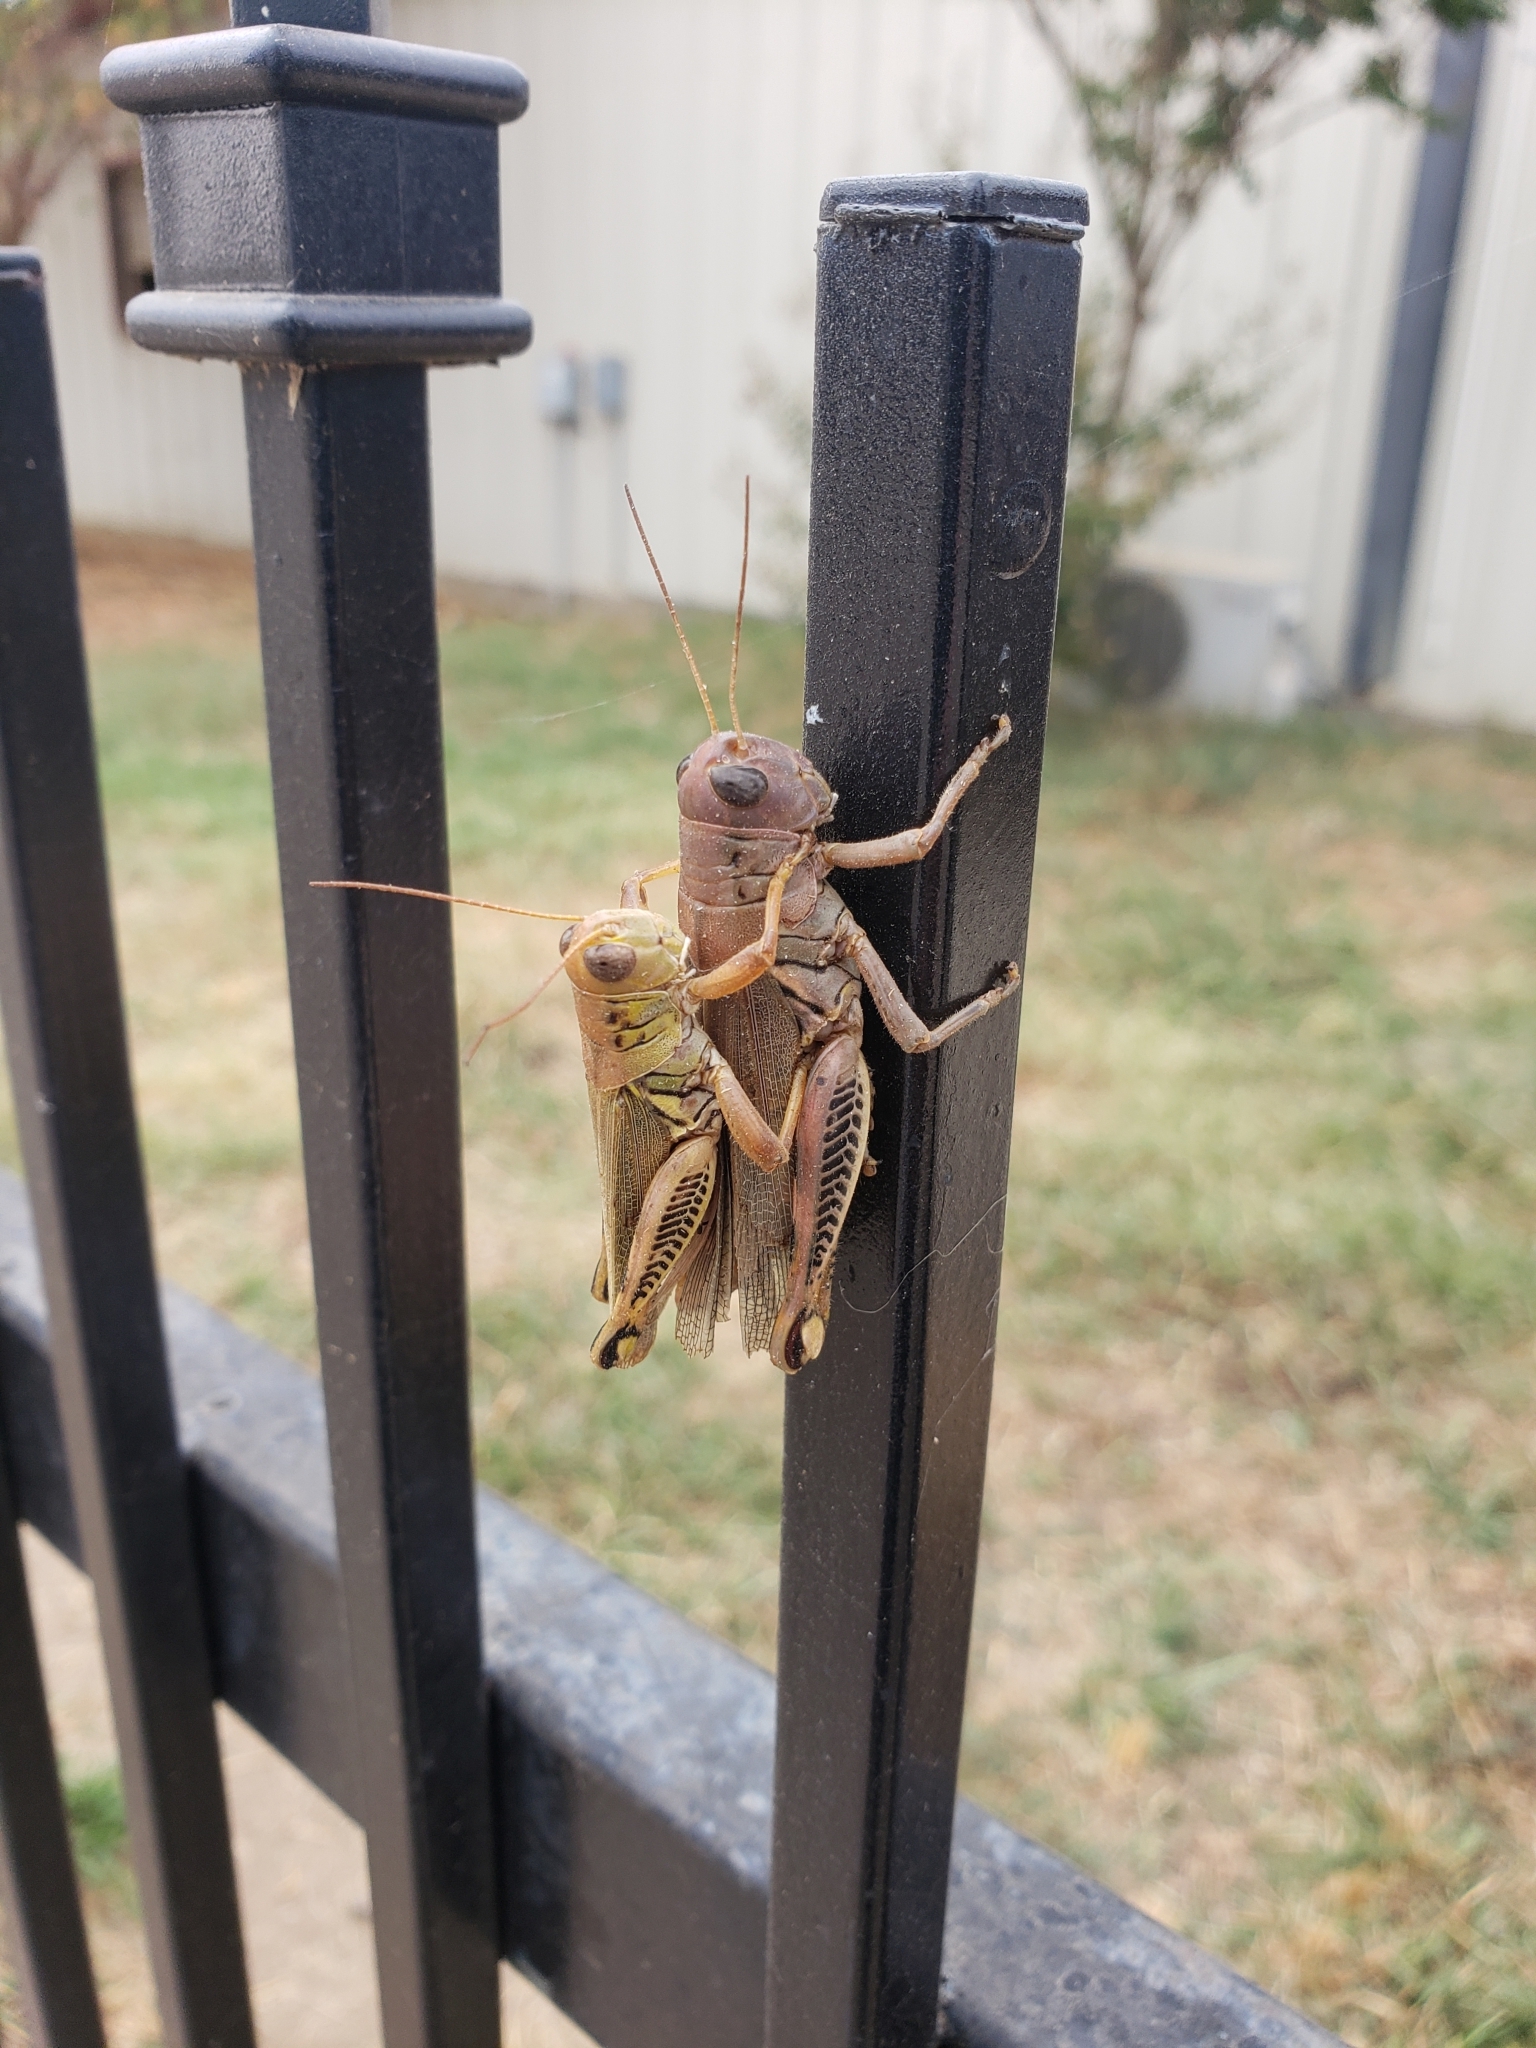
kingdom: Animalia
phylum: Arthropoda
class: Insecta
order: Orthoptera
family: Acrididae
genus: Melanoplus
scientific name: Melanoplus differentialis
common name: Differential grasshopper
